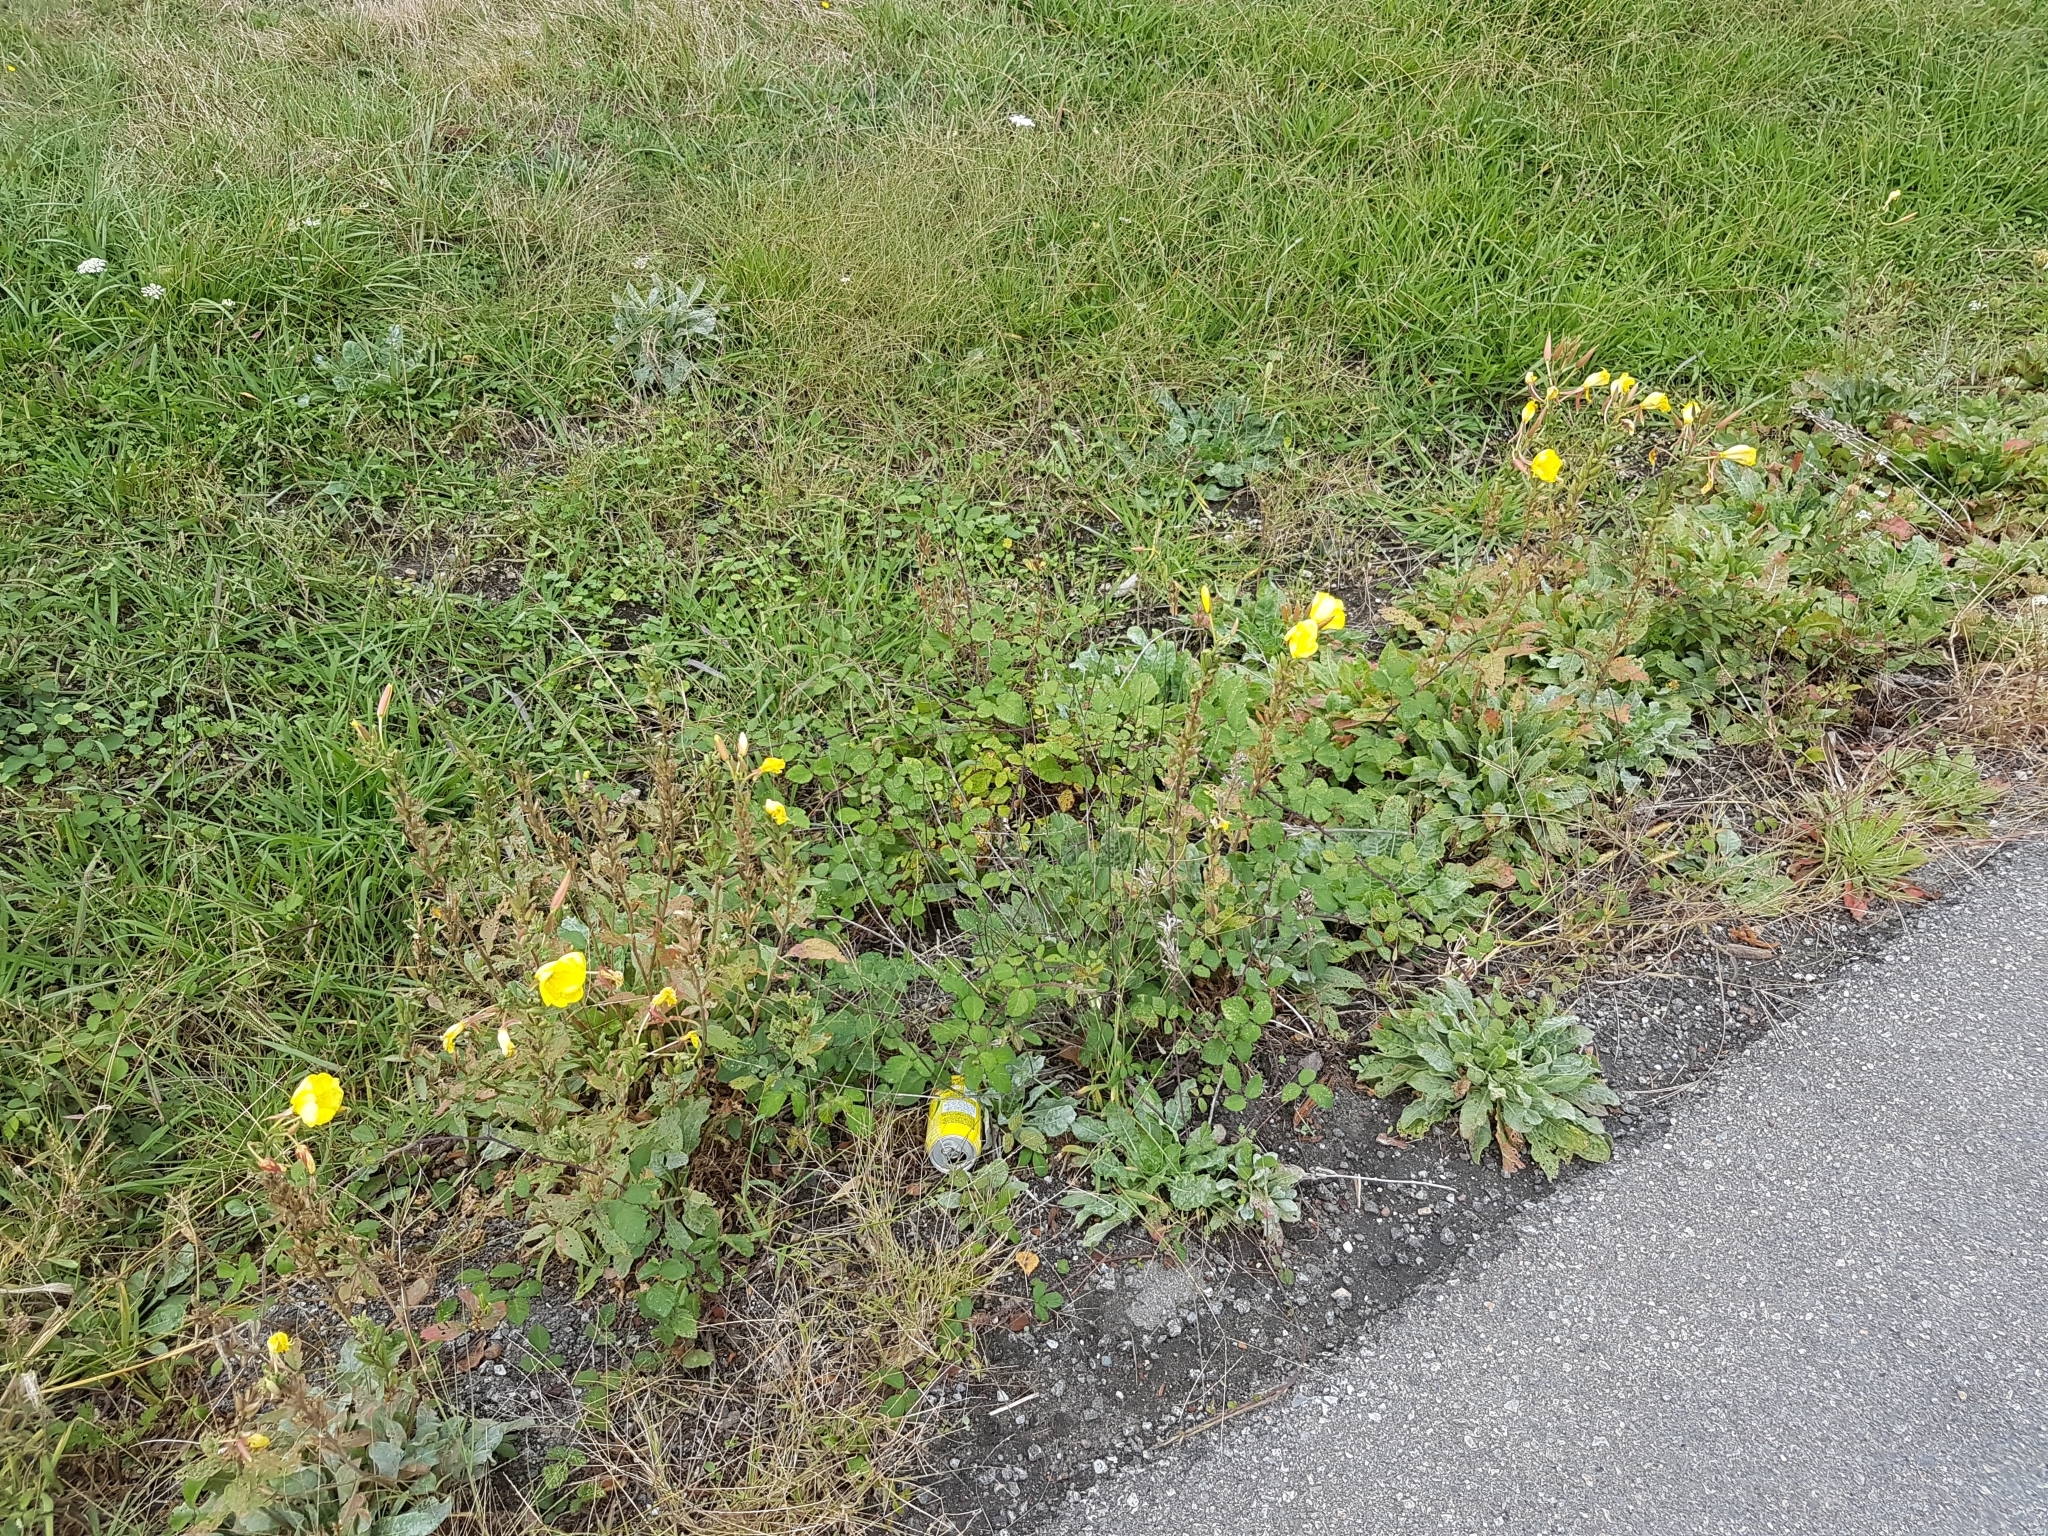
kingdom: Plantae
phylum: Tracheophyta
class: Magnoliopsida
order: Myrtales
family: Onagraceae
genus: Oenothera
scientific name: Oenothera glazioviana
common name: Large-flowered evening-primrose
